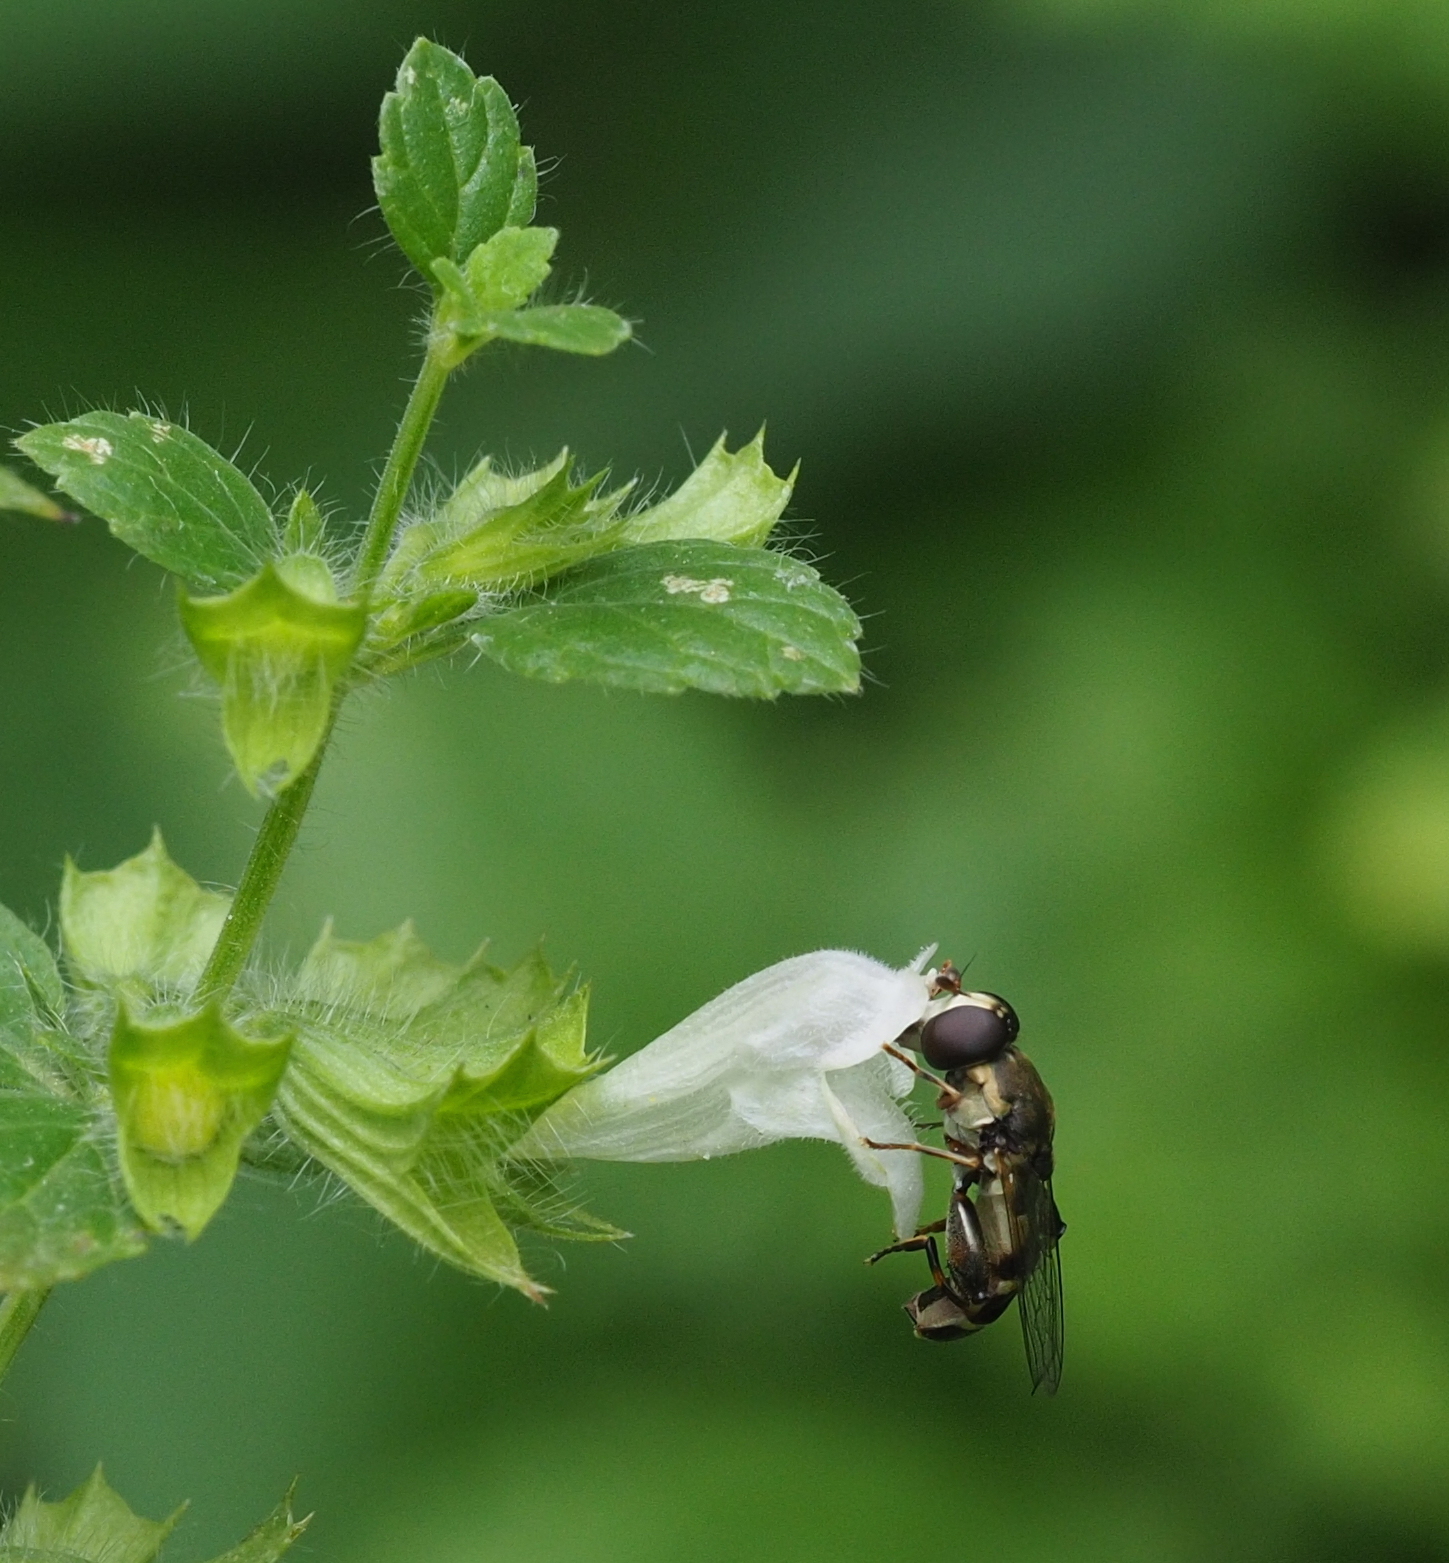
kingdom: Animalia
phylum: Arthropoda
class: Insecta
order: Diptera
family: Syrphidae
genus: Syritta
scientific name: Syritta pipiens
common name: Hover fly
